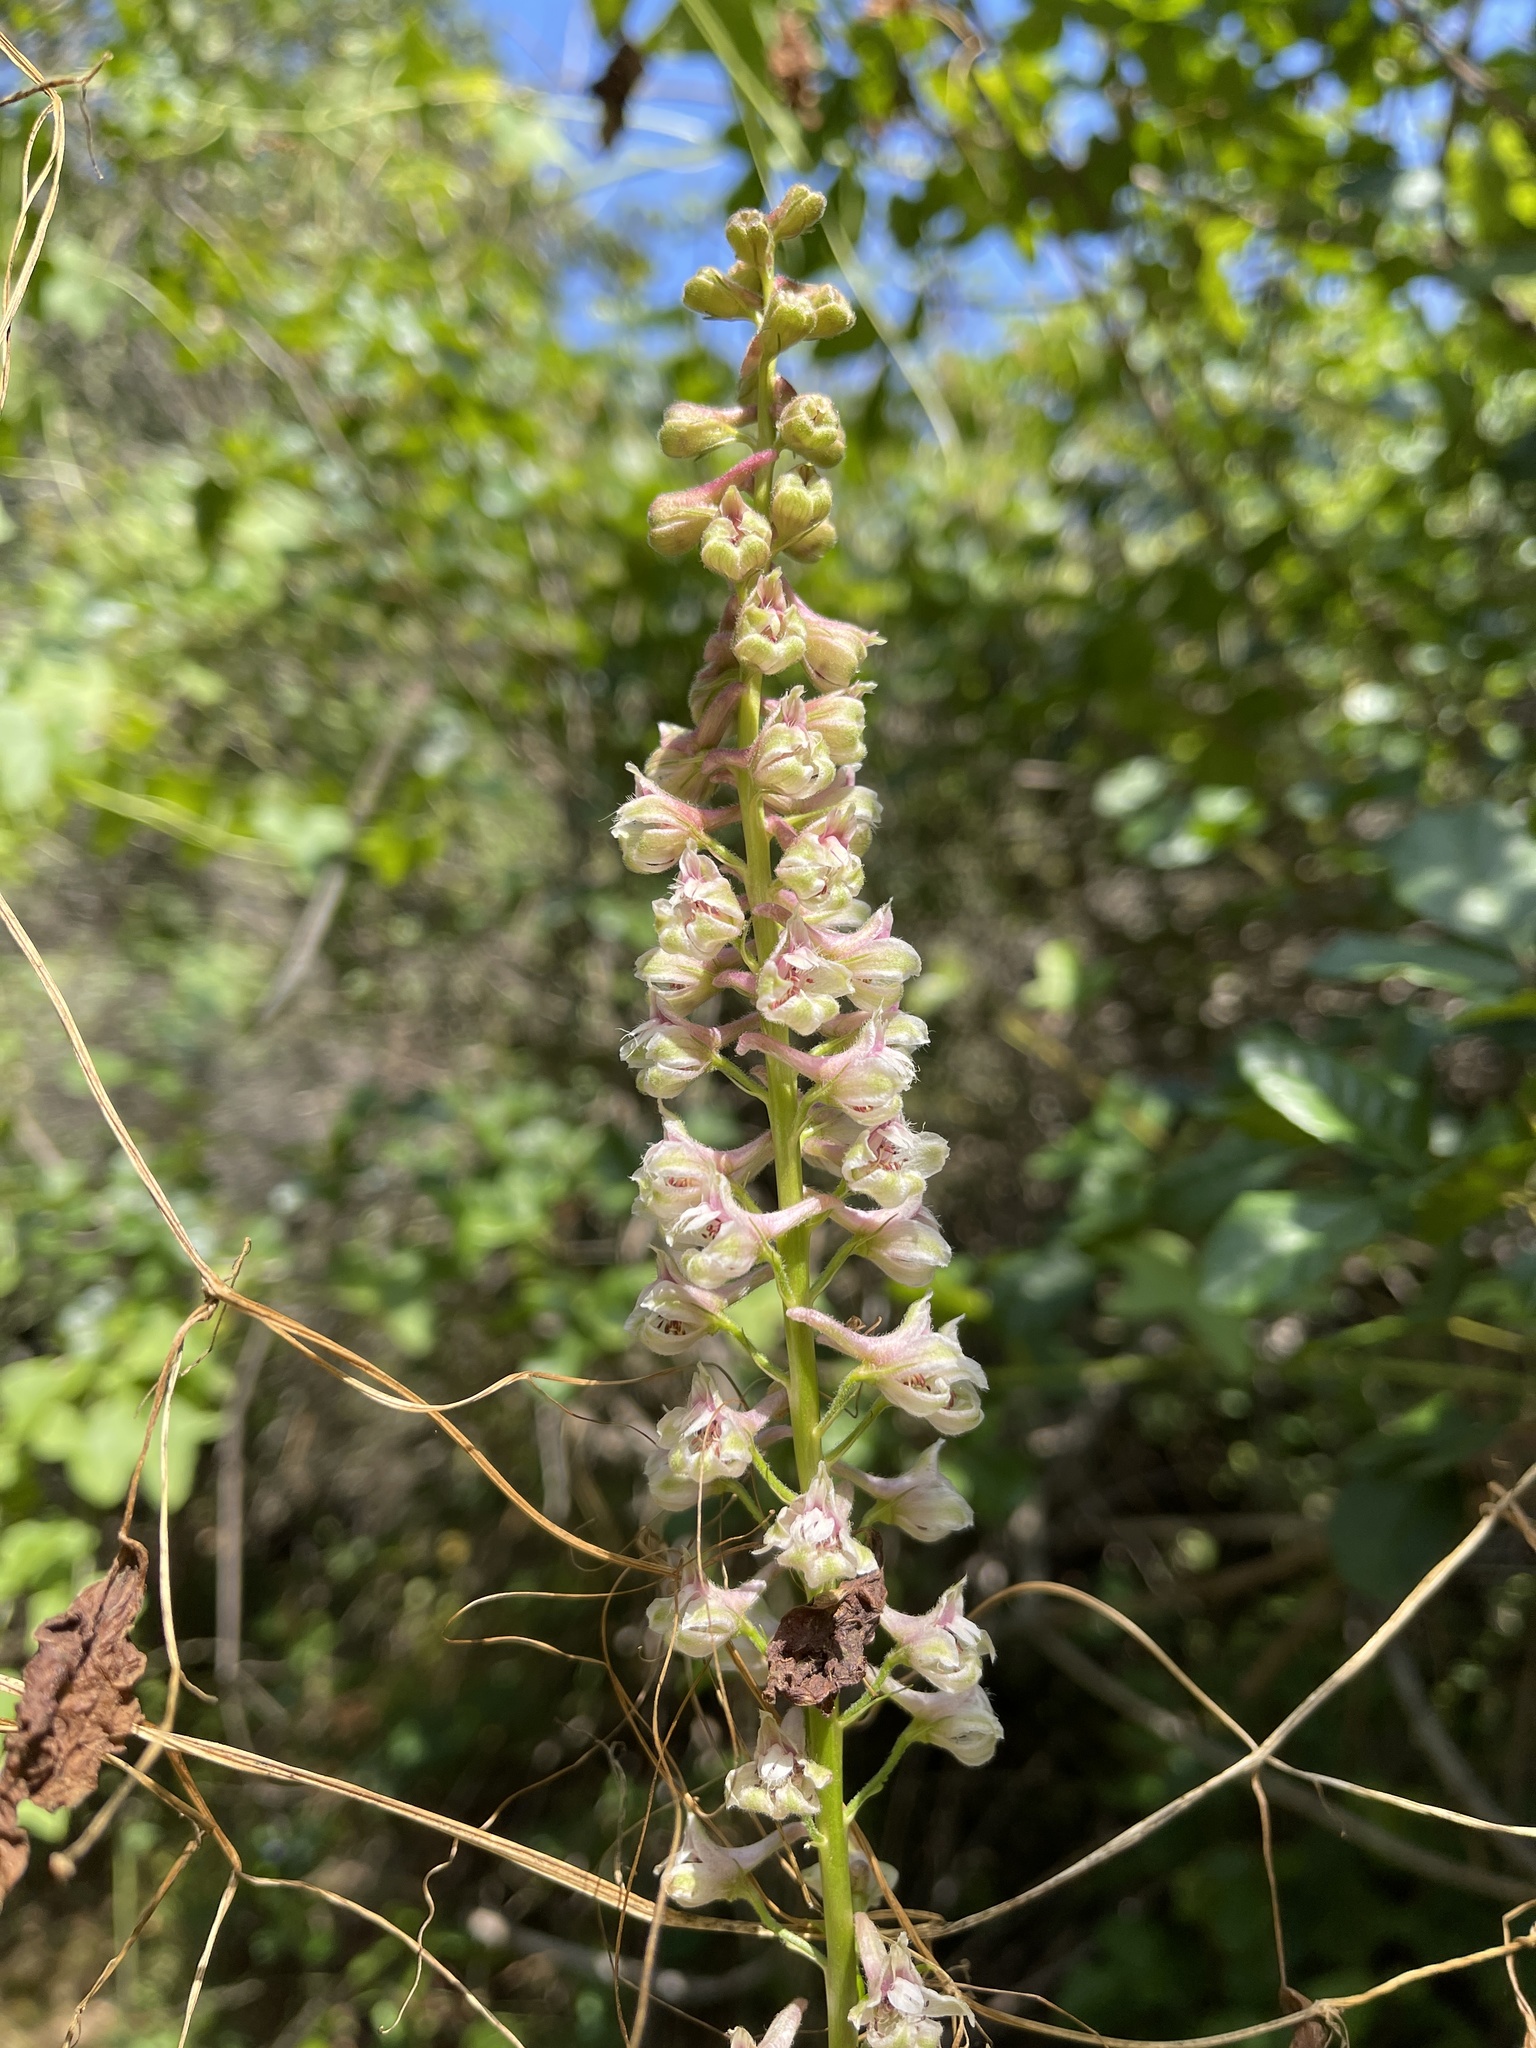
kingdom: Plantae
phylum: Tracheophyta
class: Magnoliopsida
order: Ranunculales
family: Ranunculaceae
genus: Delphinium
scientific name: Delphinium californicum
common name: California larkspur
